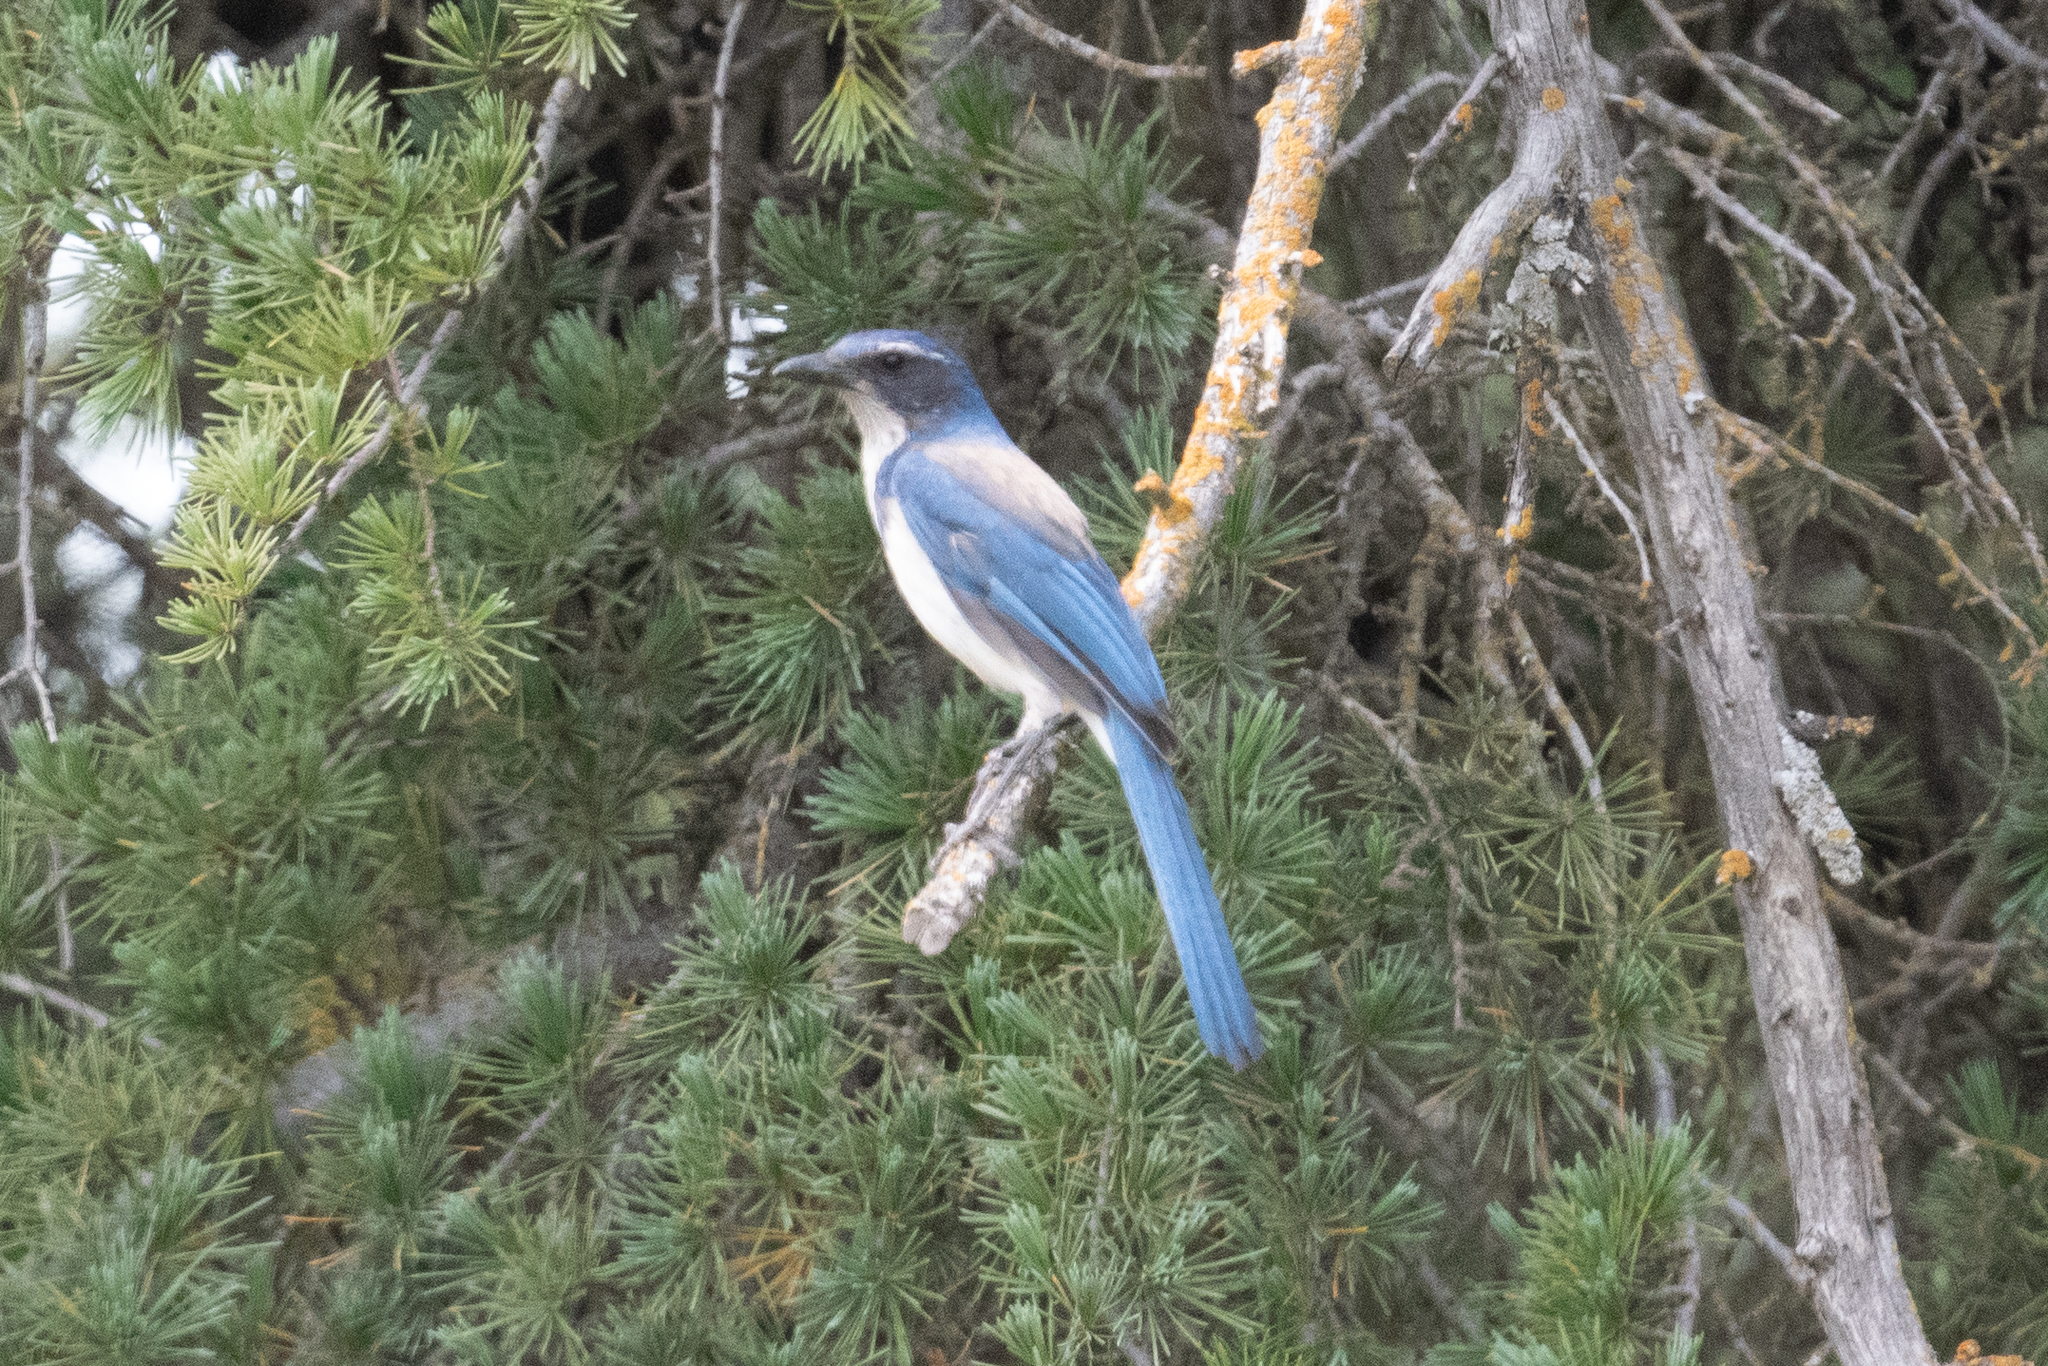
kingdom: Animalia
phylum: Chordata
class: Aves
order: Passeriformes
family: Corvidae
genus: Aphelocoma
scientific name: Aphelocoma californica
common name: California scrub-jay
